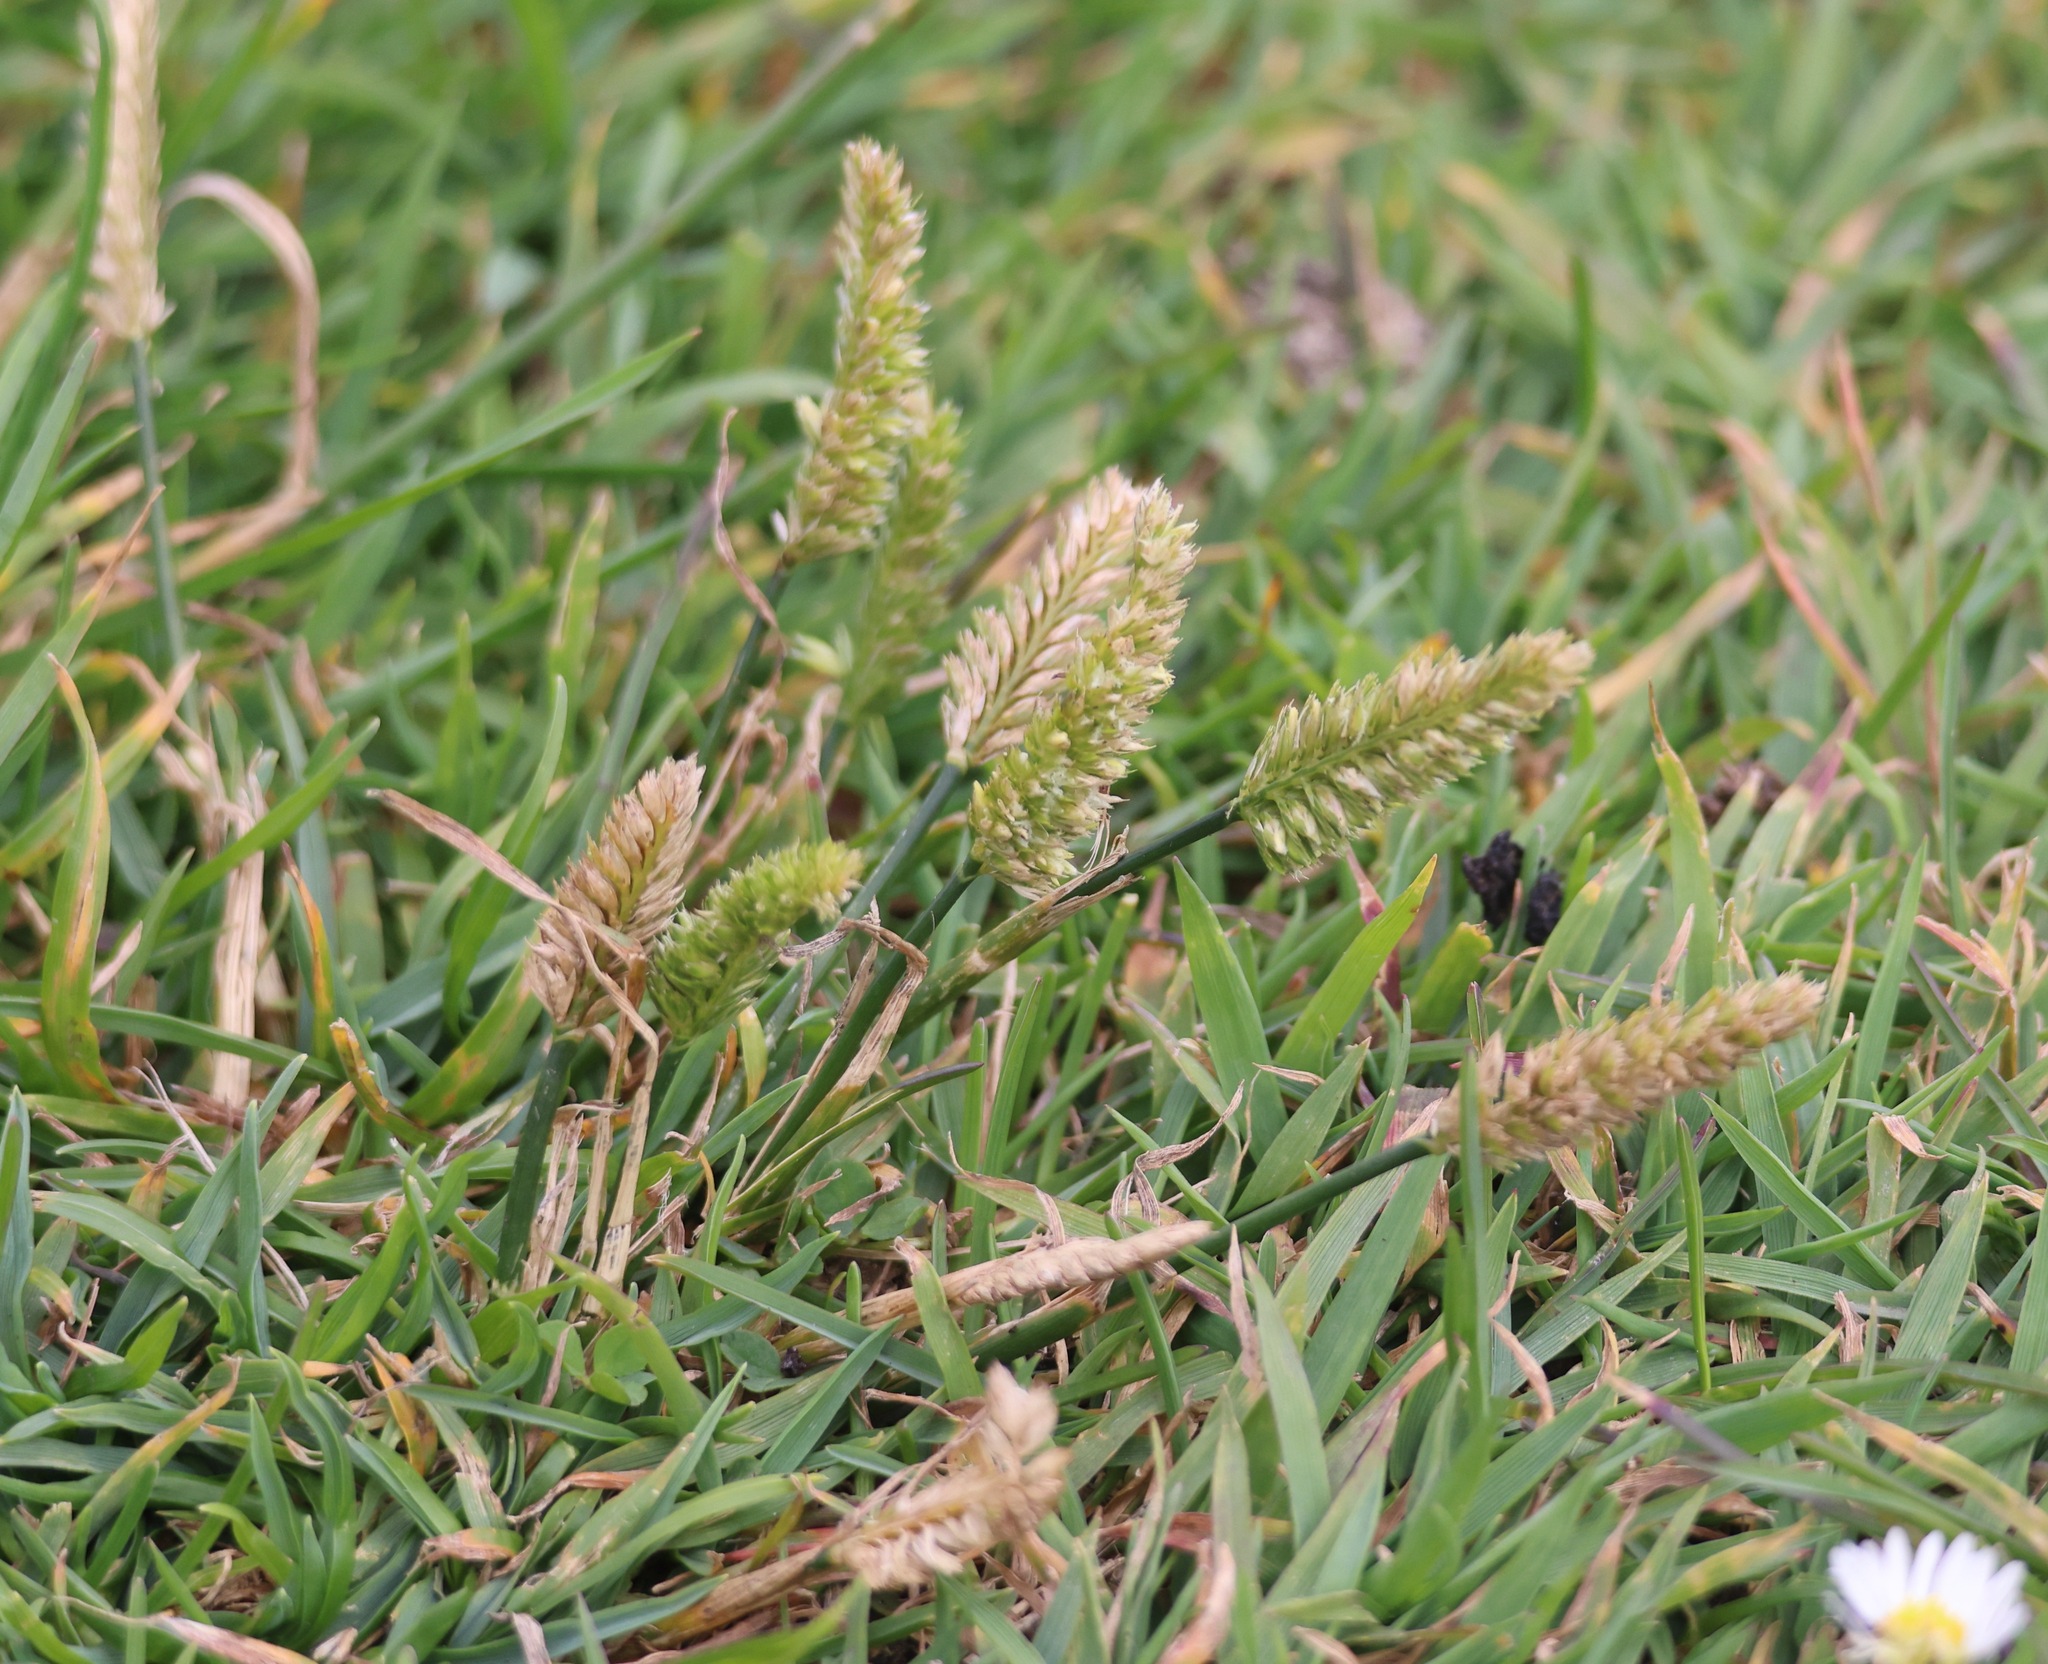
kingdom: Plantae
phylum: Tracheophyta
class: Liliopsida
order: Poales
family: Poaceae
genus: Cynosurus
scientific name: Cynosurus cristatus
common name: Crested dog's-tail
